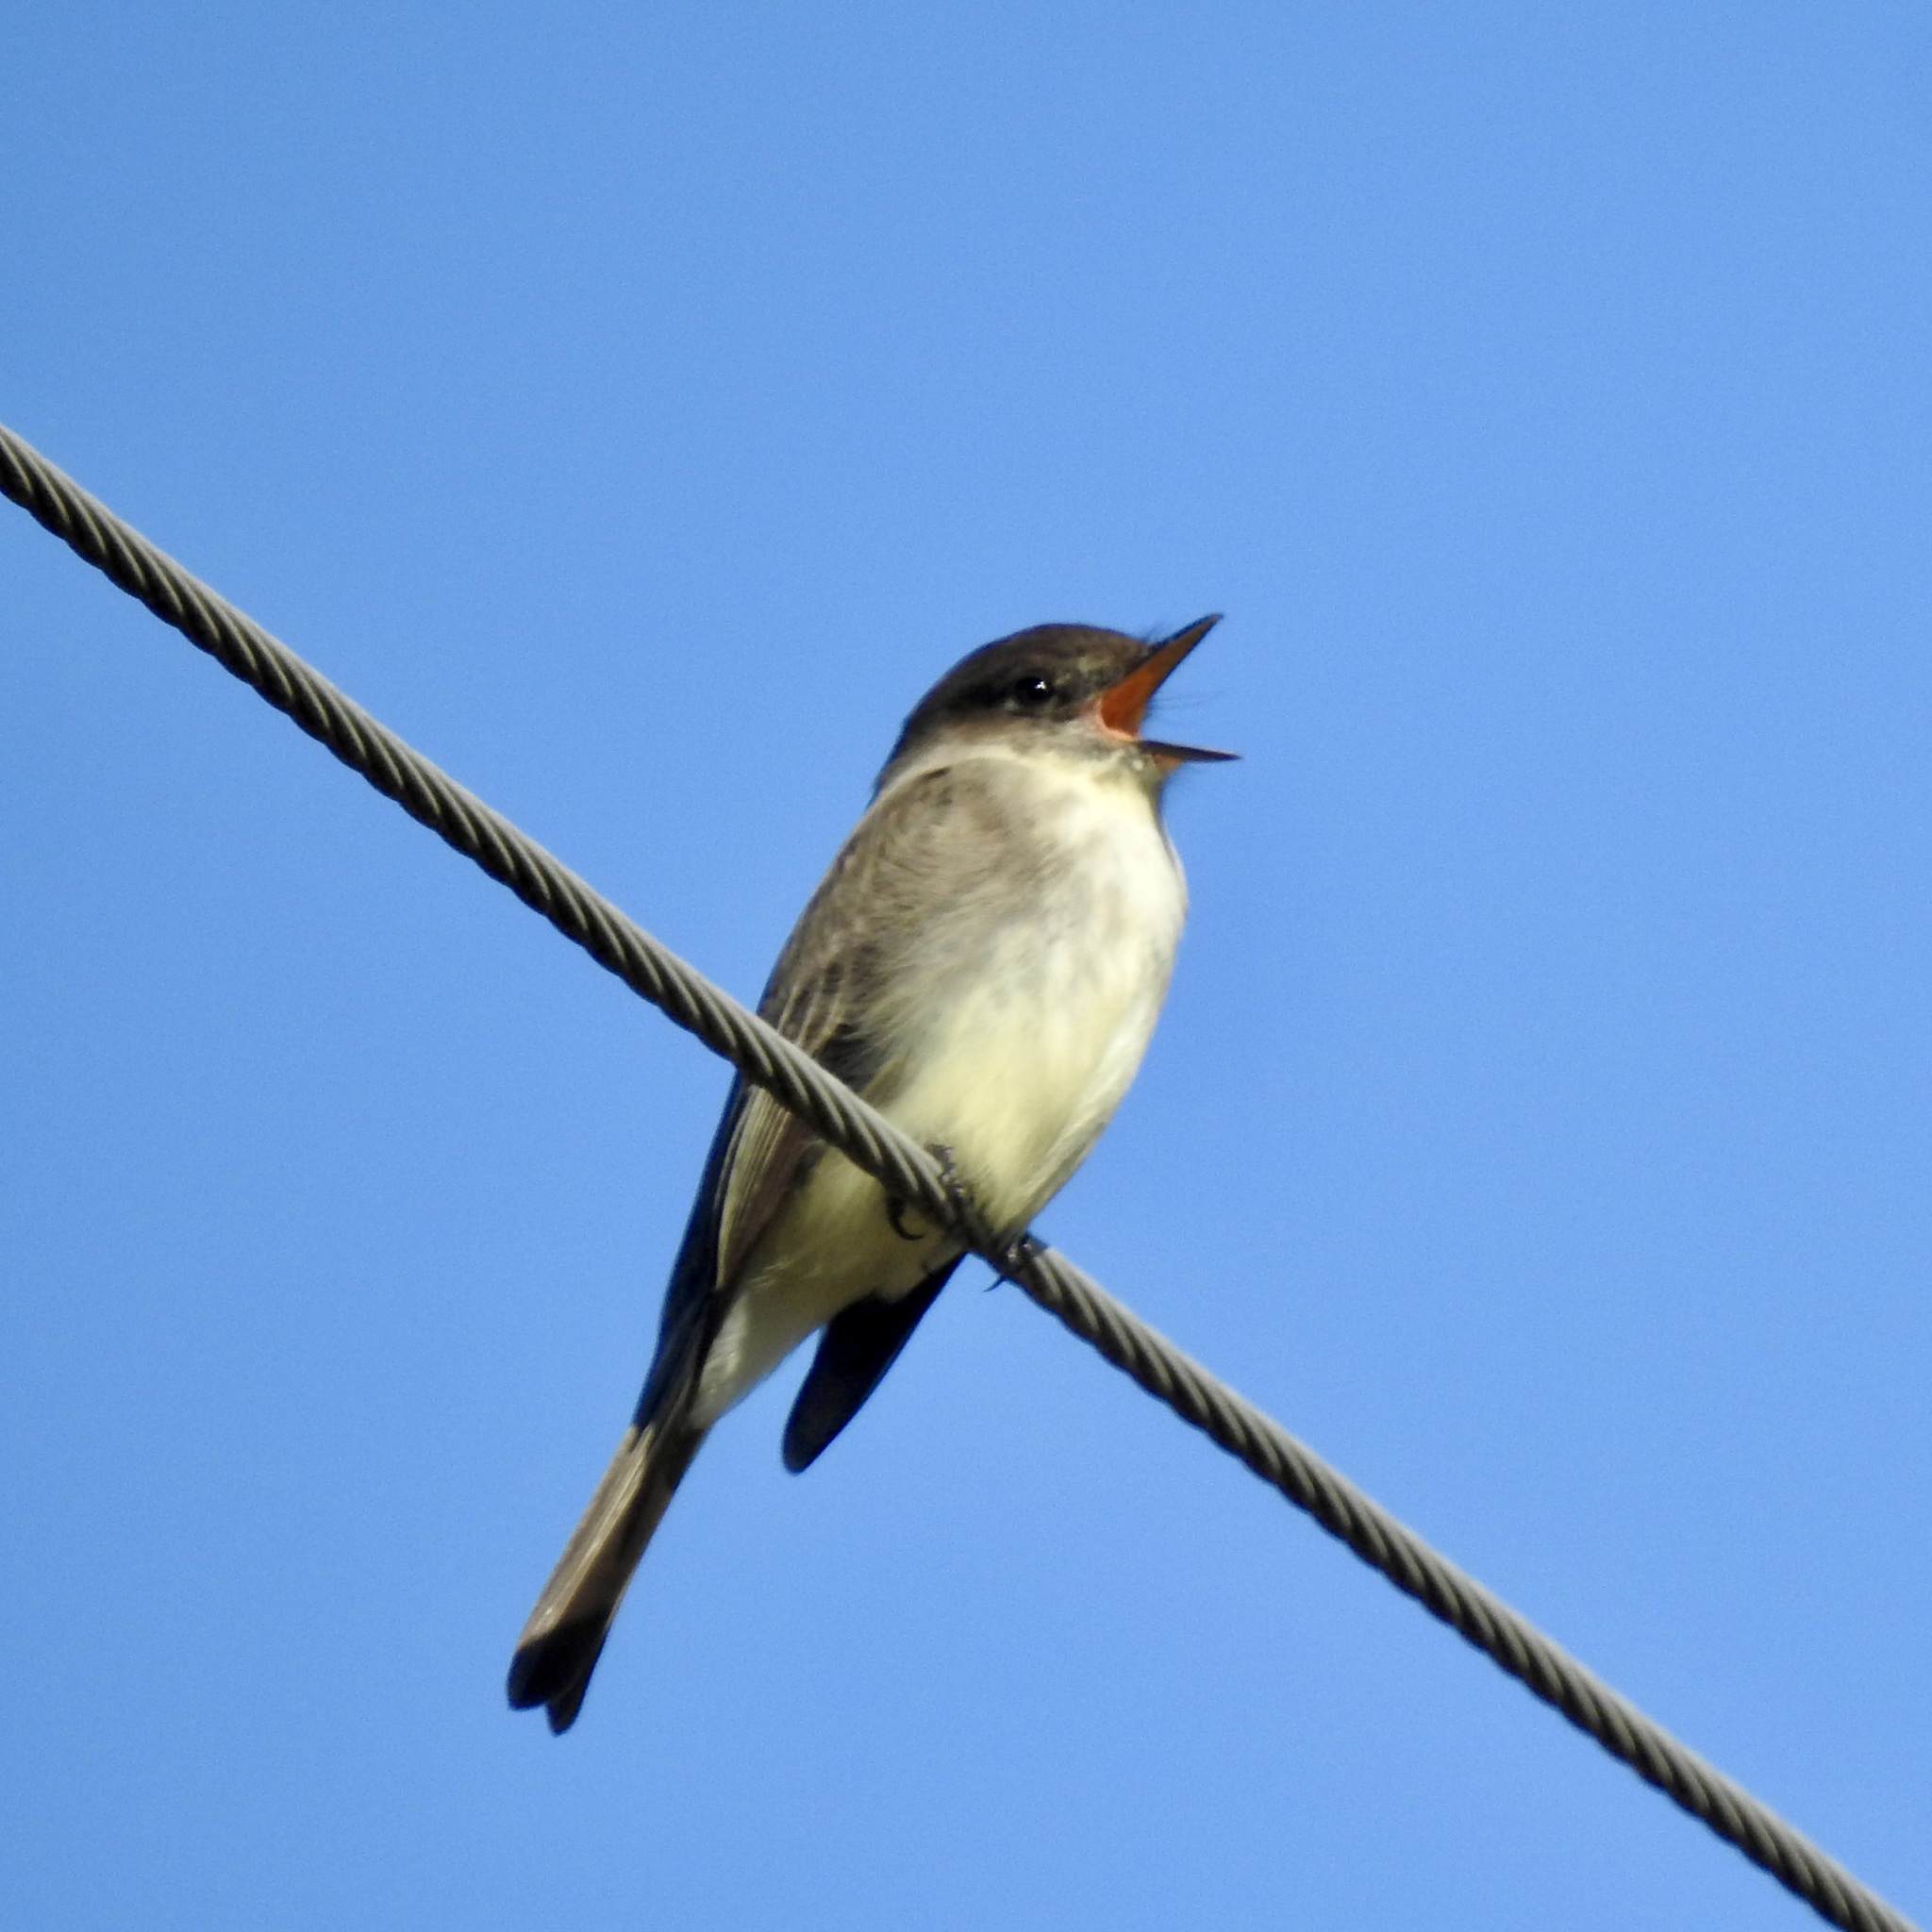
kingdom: Animalia
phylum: Chordata
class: Aves
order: Passeriformes
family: Tyrannidae
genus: Sayornis
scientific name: Sayornis phoebe
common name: Eastern phoebe
